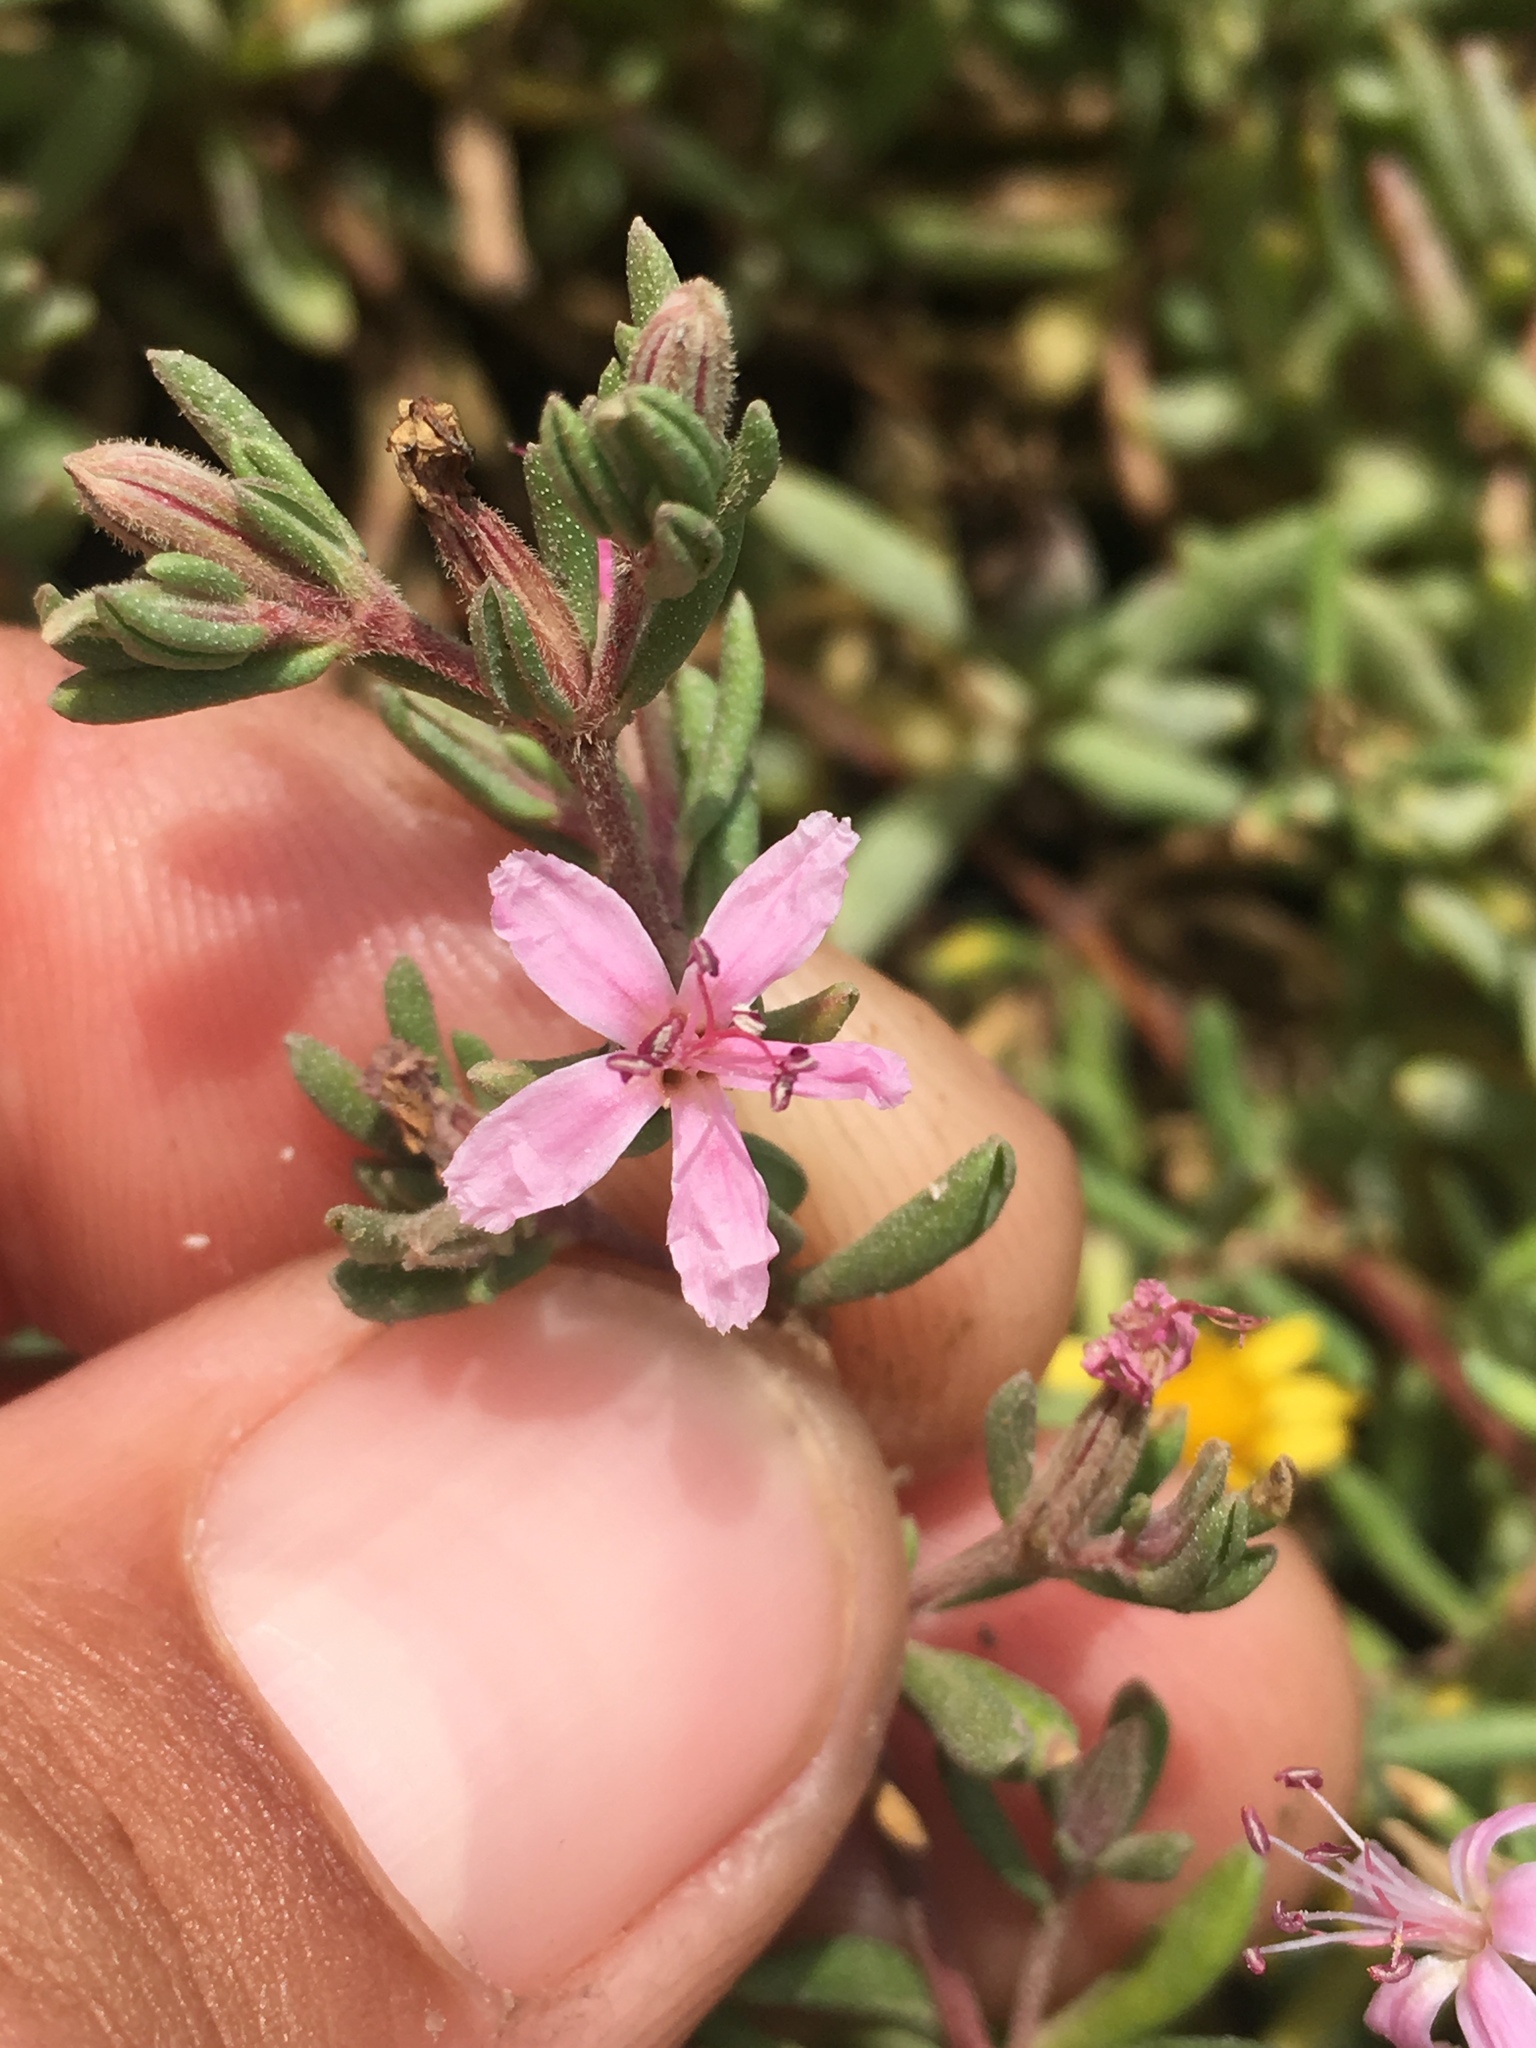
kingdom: Plantae
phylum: Tracheophyta
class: Magnoliopsida
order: Caryophyllales
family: Frankeniaceae
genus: Frankenia
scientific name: Frankenia salina
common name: Alkali seaheath
